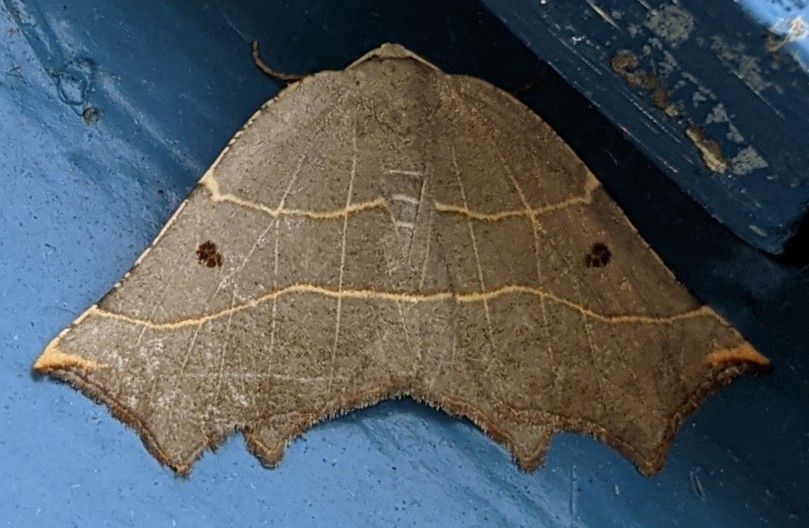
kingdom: Animalia
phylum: Arthropoda
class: Insecta
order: Lepidoptera
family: Geometridae
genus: Metanema
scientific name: Metanema inatomaria
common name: Pale metanema
